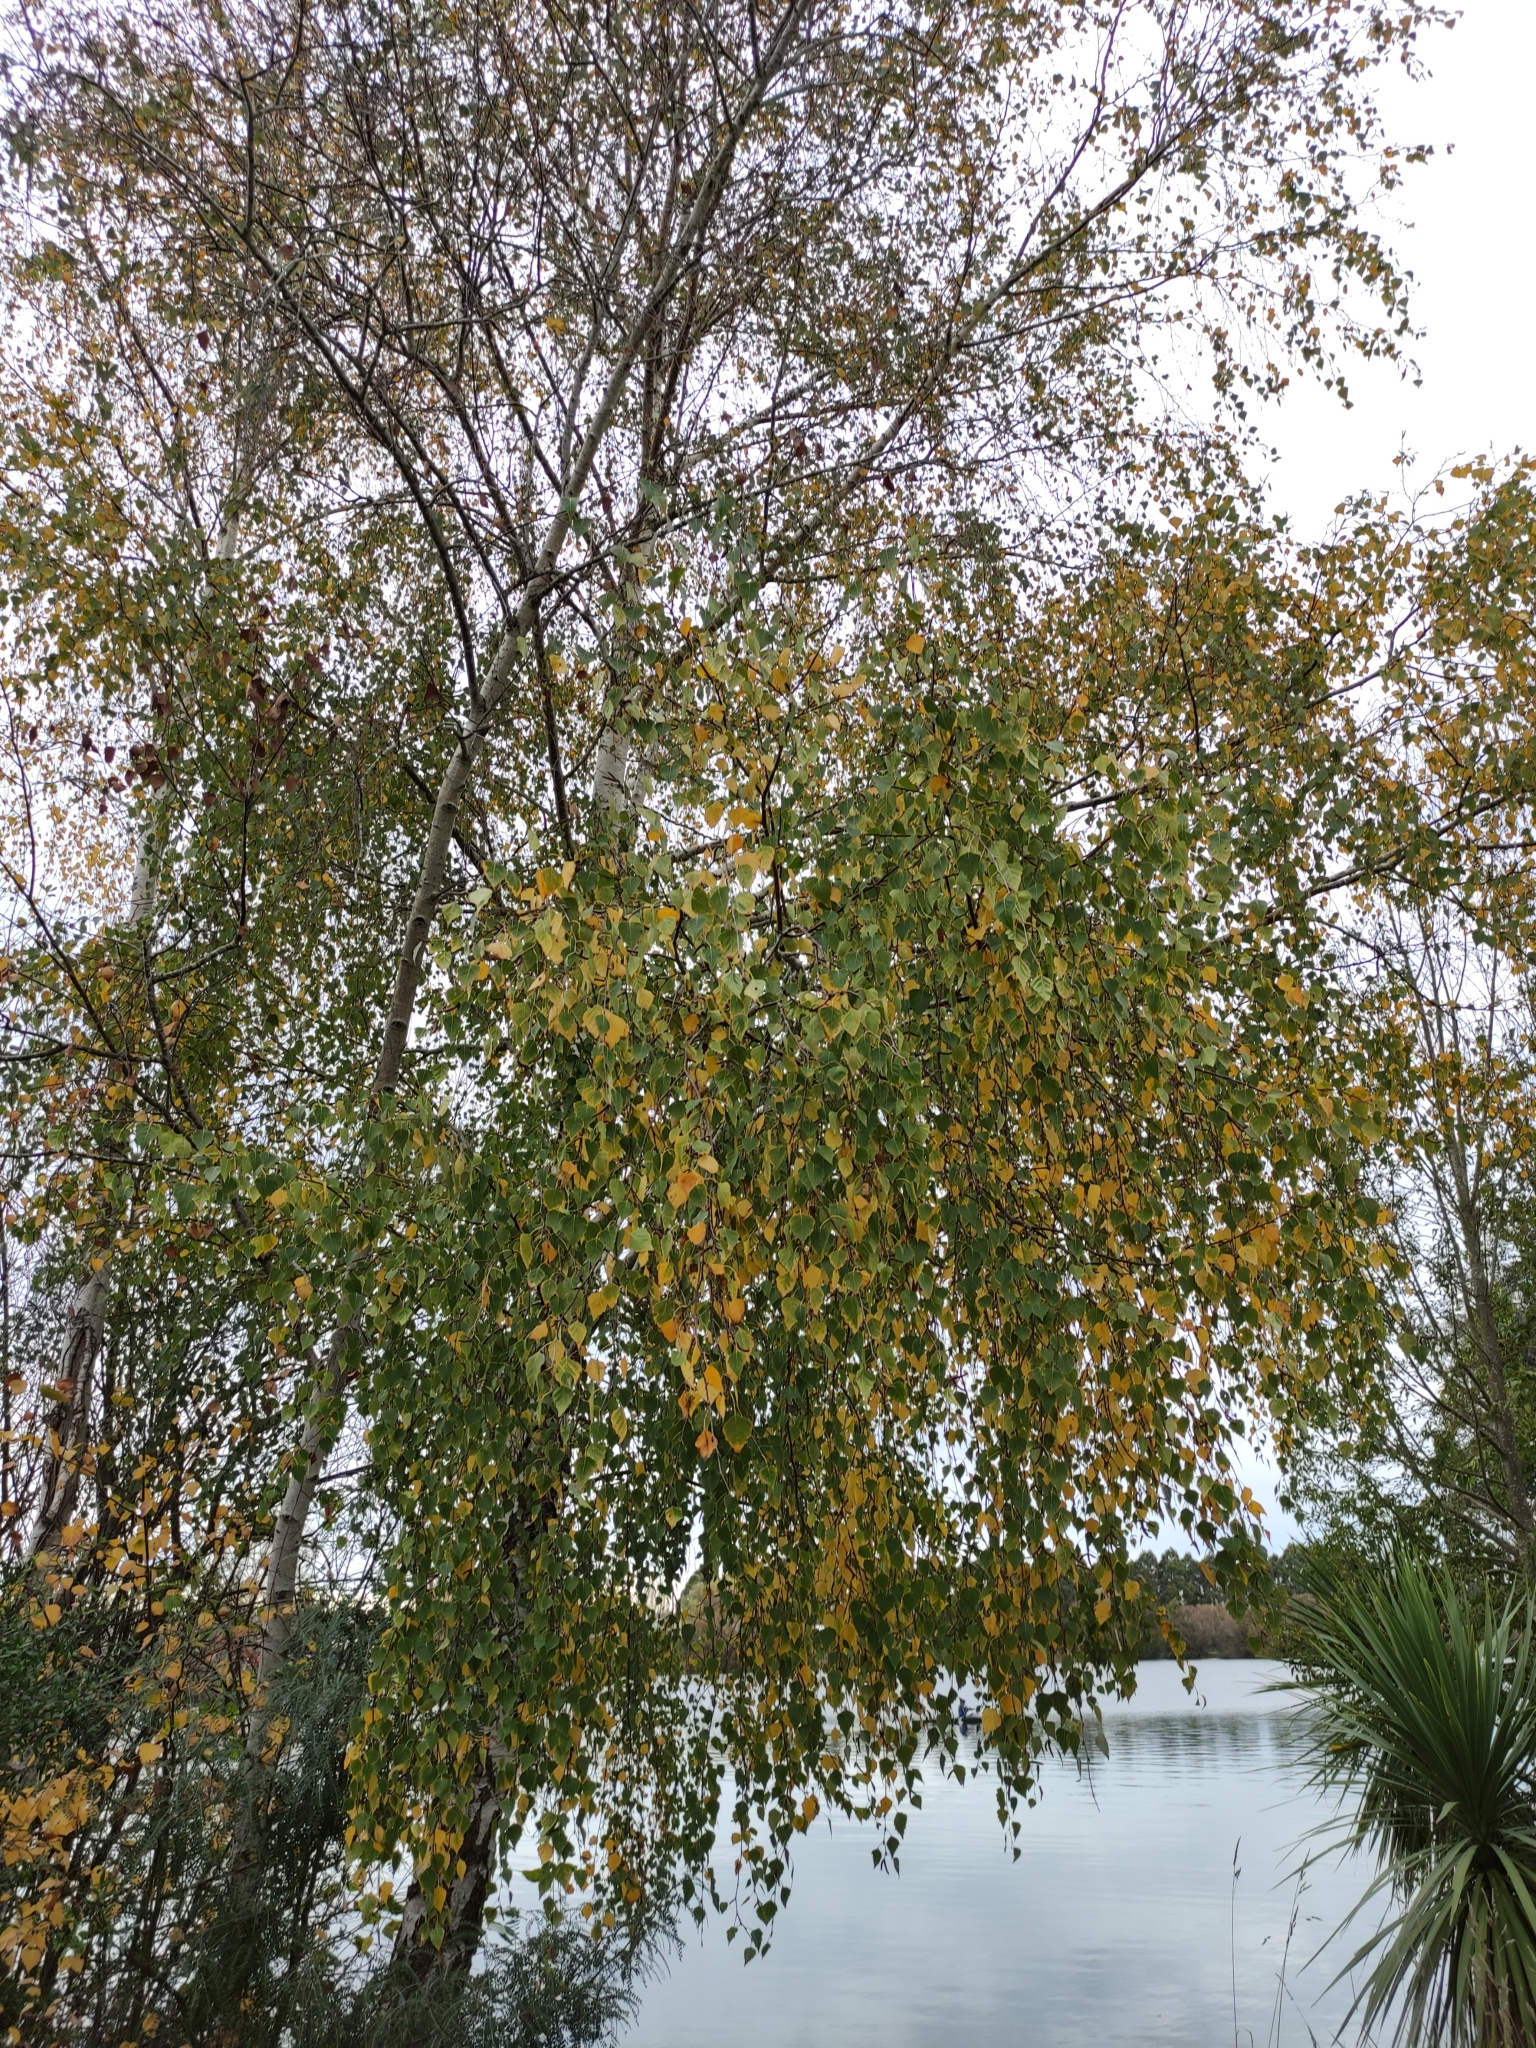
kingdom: Plantae
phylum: Tracheophyta
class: Magnoliopsida
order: Fagales
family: Betulaceae
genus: Betula
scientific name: Betula pendula
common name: Silver birch
